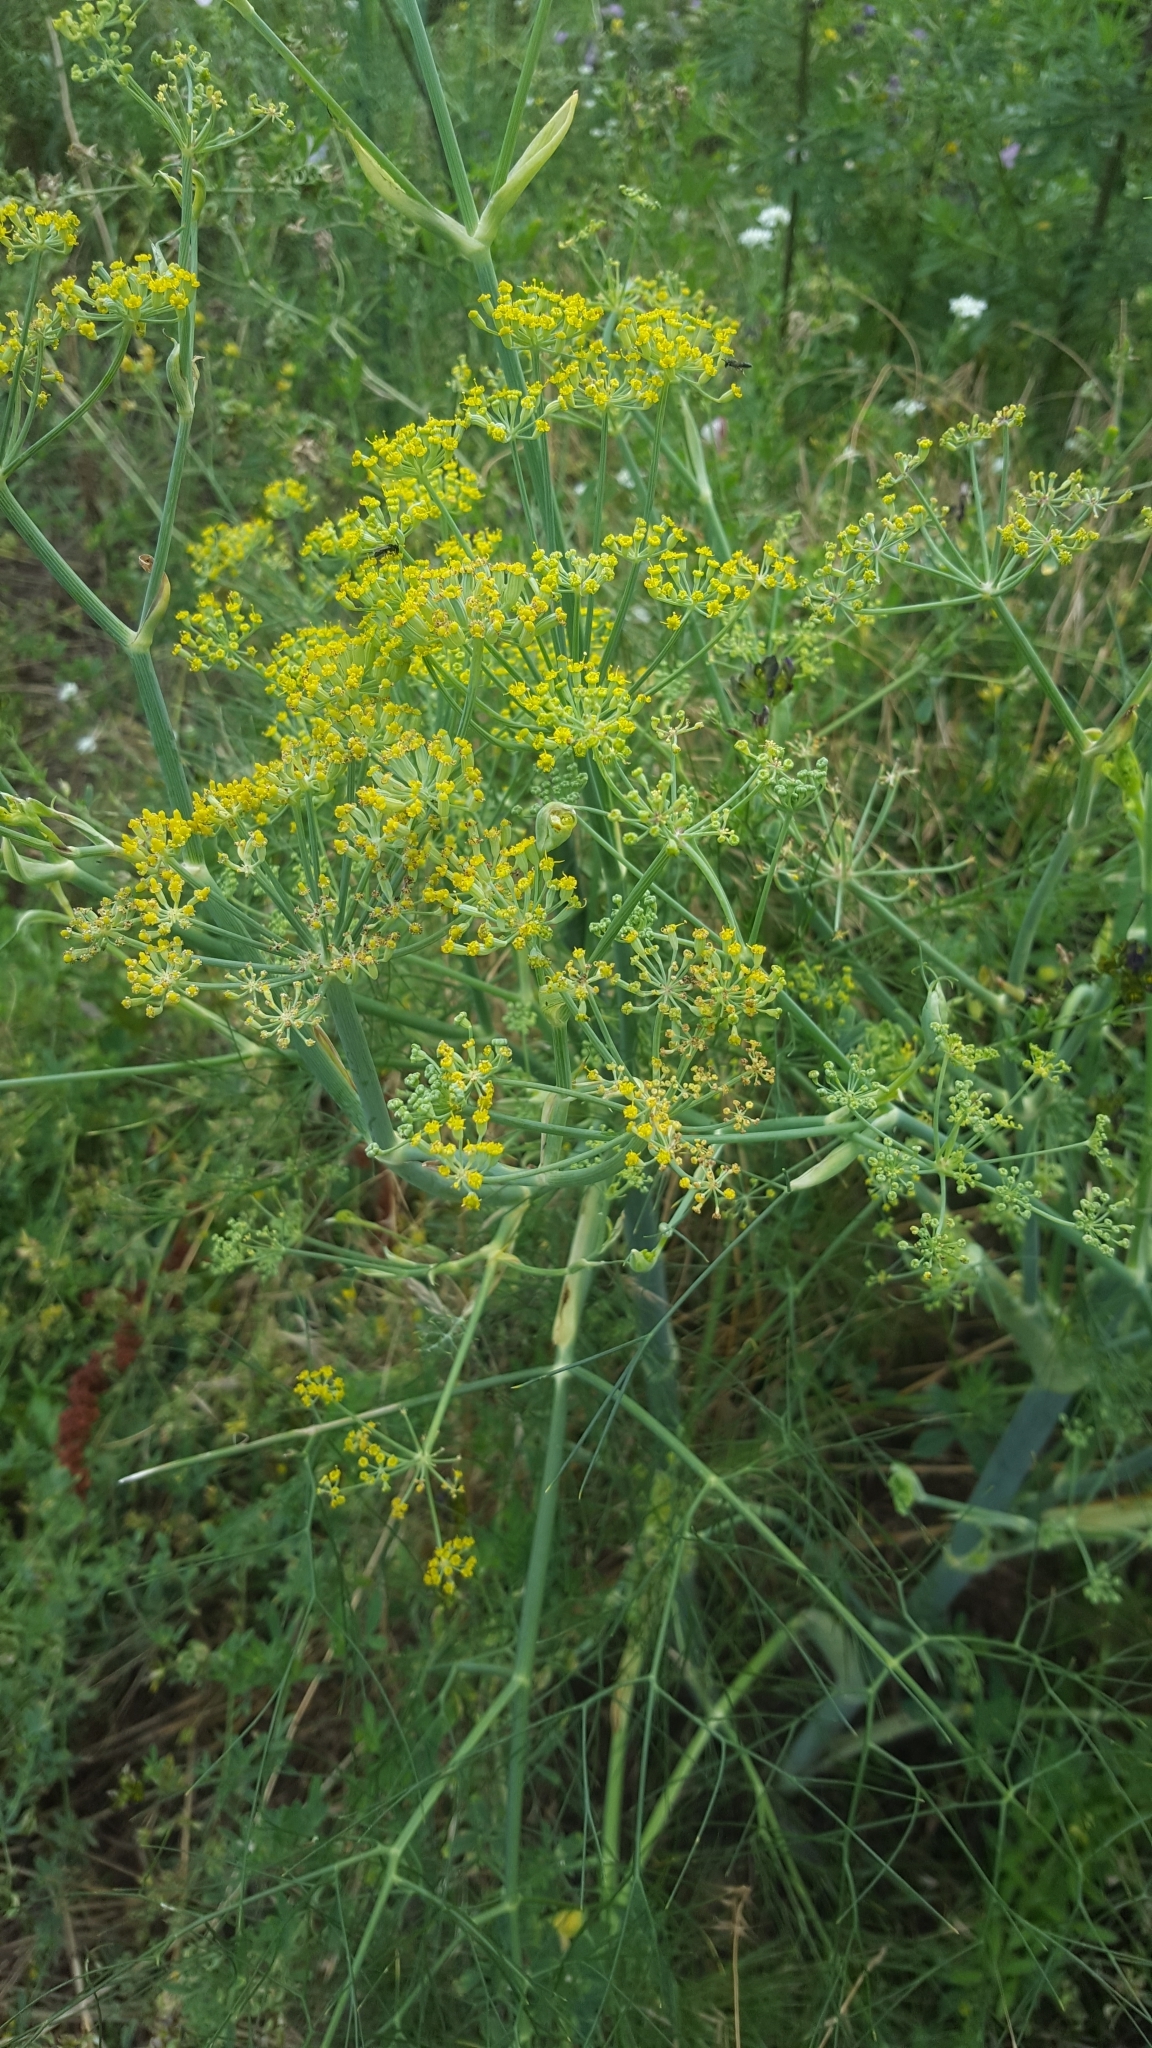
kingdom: Plantae
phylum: Tracheophyta
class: Magnoliopsida
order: Apiales
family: Apiaceae
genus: Foeniculum
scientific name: Foeniculum vulgare
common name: Fennel
